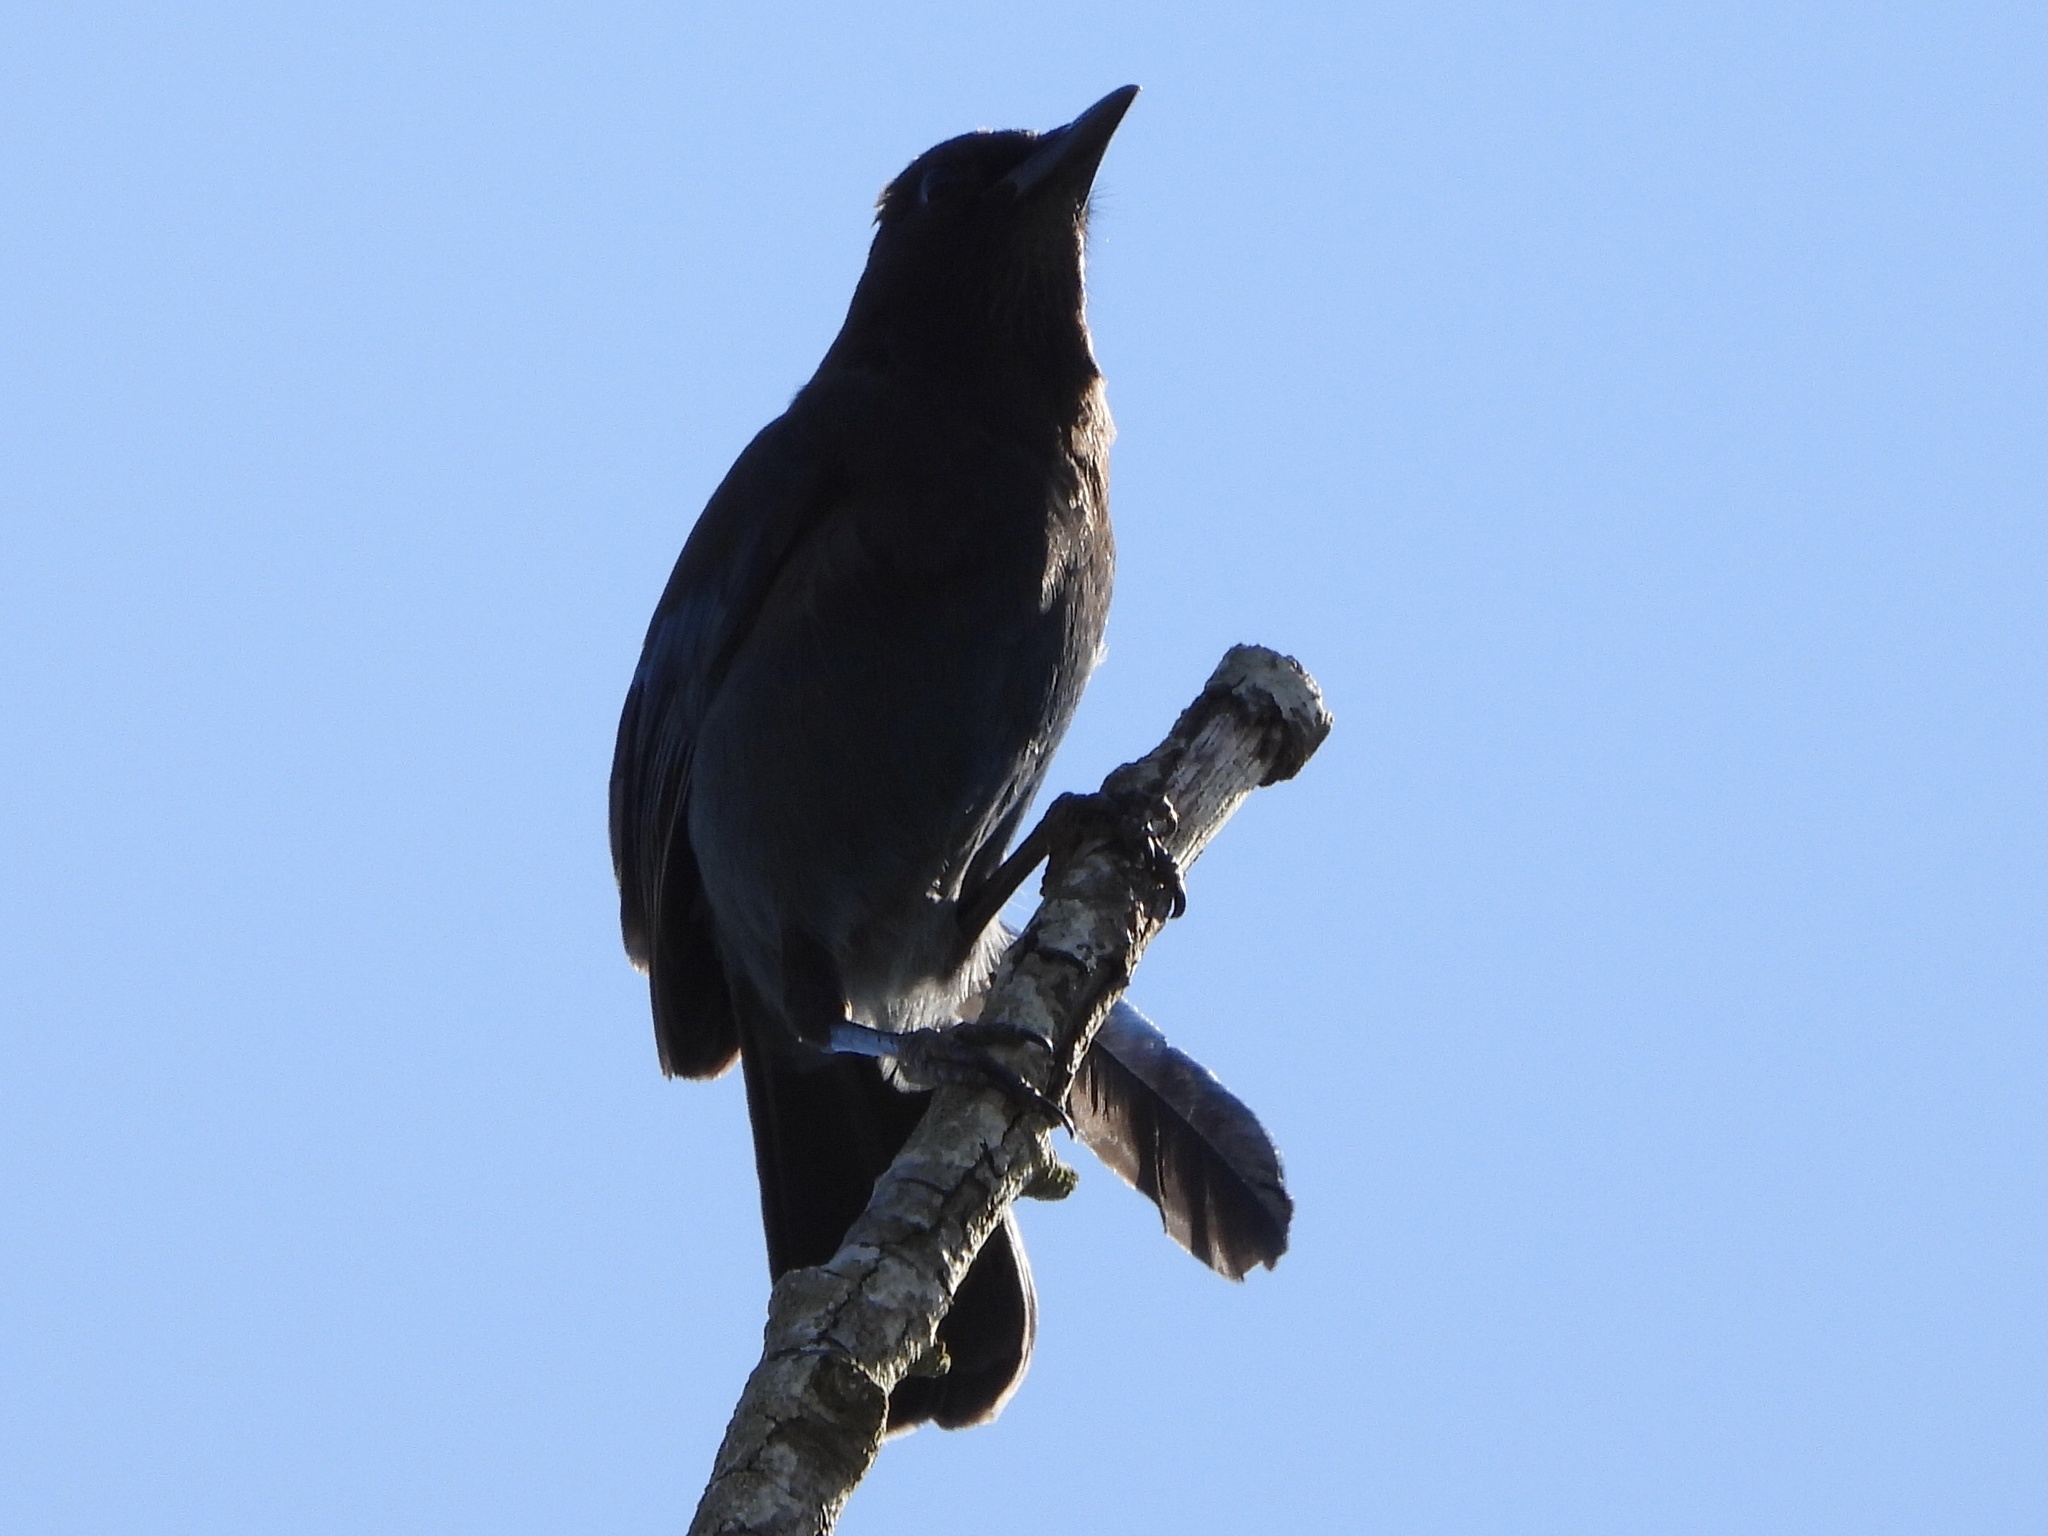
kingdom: Animalia
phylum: Chordata
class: Aves
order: Passeriformes
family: Corvidae
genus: Cyanocitta
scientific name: Cyanocitta stelleri
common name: Steller's jay
